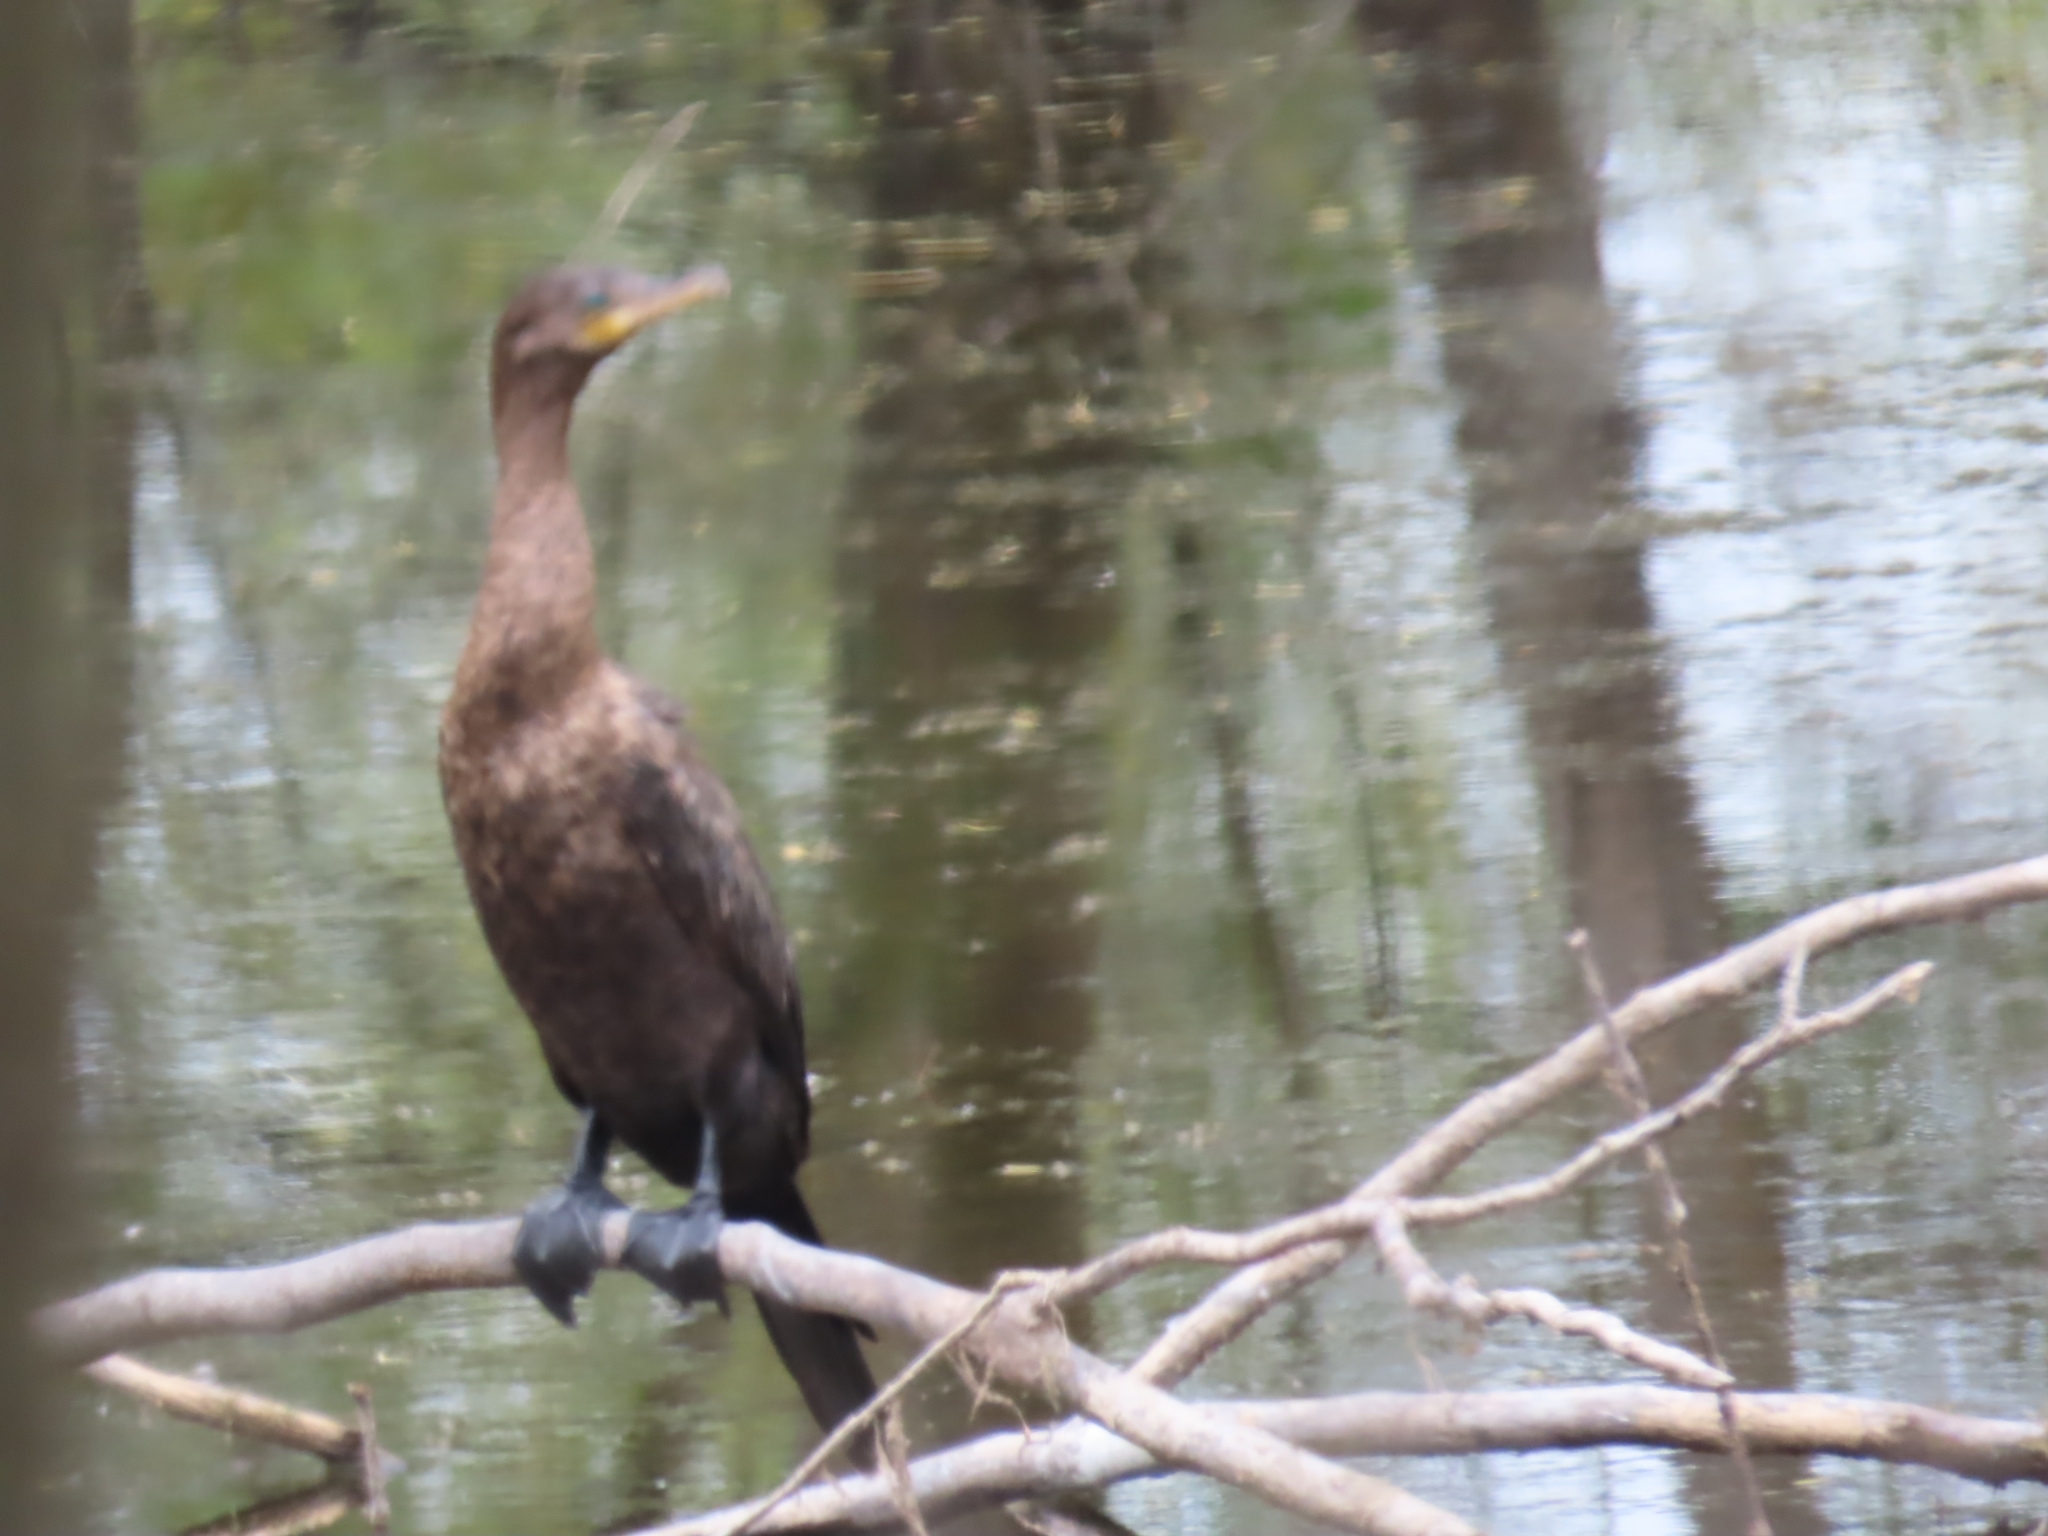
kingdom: Animalia
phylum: Chordata
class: Aves
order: Suliformes
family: Phalacrocoracidae
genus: Phalacrocorax
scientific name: Phalacrocorax brasilianus
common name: Neotropic cormorant
